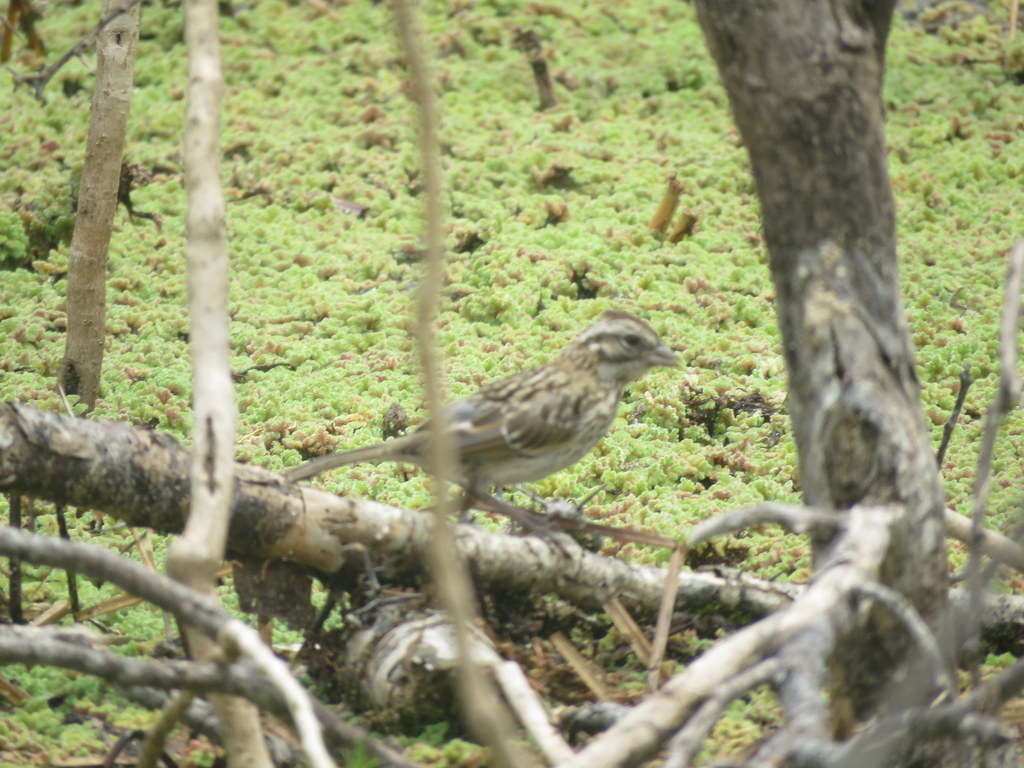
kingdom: Animalia
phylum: Chordata
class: Aves
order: Passeriformes
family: Passerellidae
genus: Zonotrichia
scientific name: Zonotrichia capensis
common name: Rufous-collared sparrow
